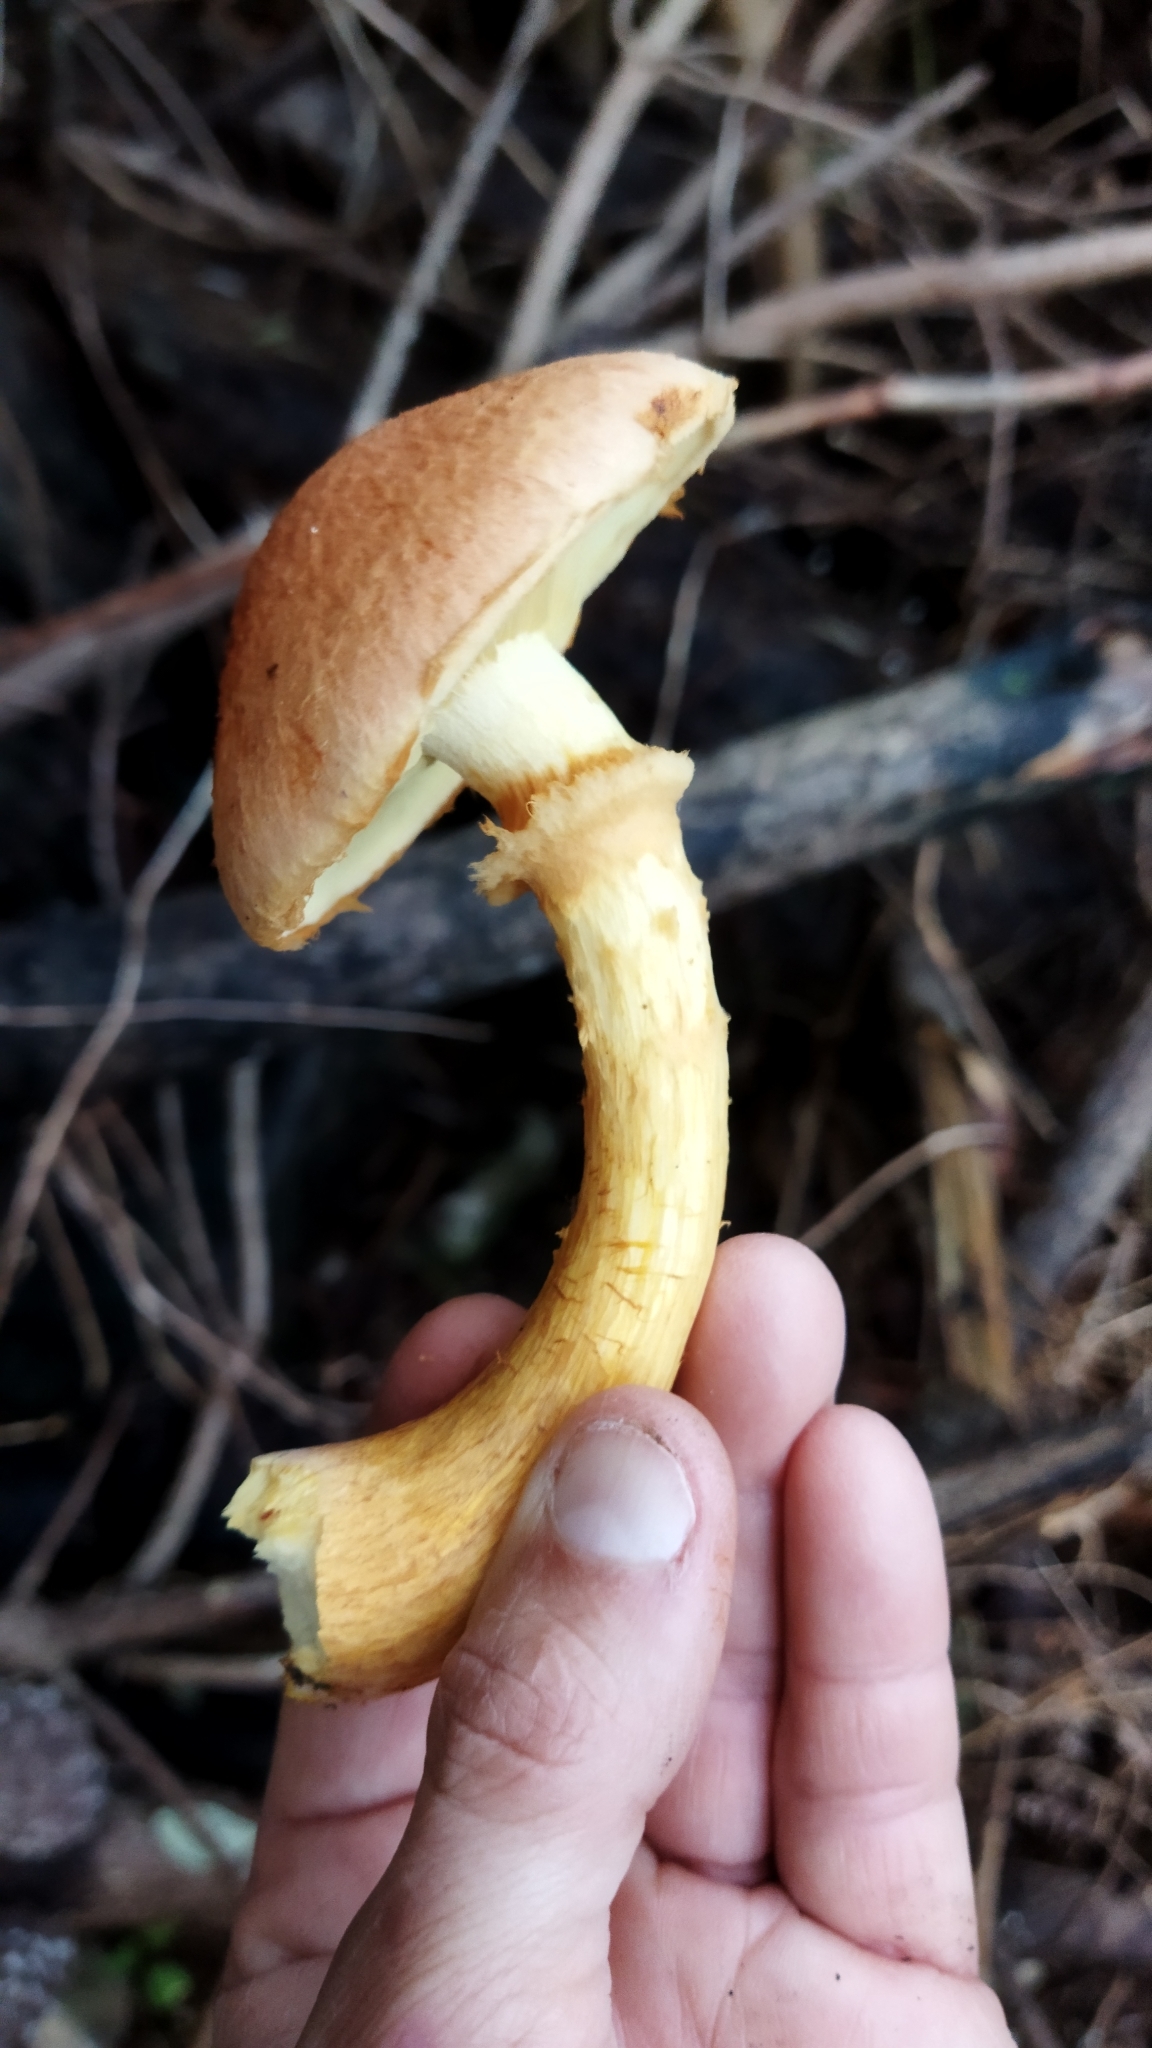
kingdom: Fungi
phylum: Basidiomycota
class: Agaricomycetes
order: Agaricales
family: Hymenogastraceae
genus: Gymnopilus
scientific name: Gymnopilus junonius
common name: Spectacular rustgill
